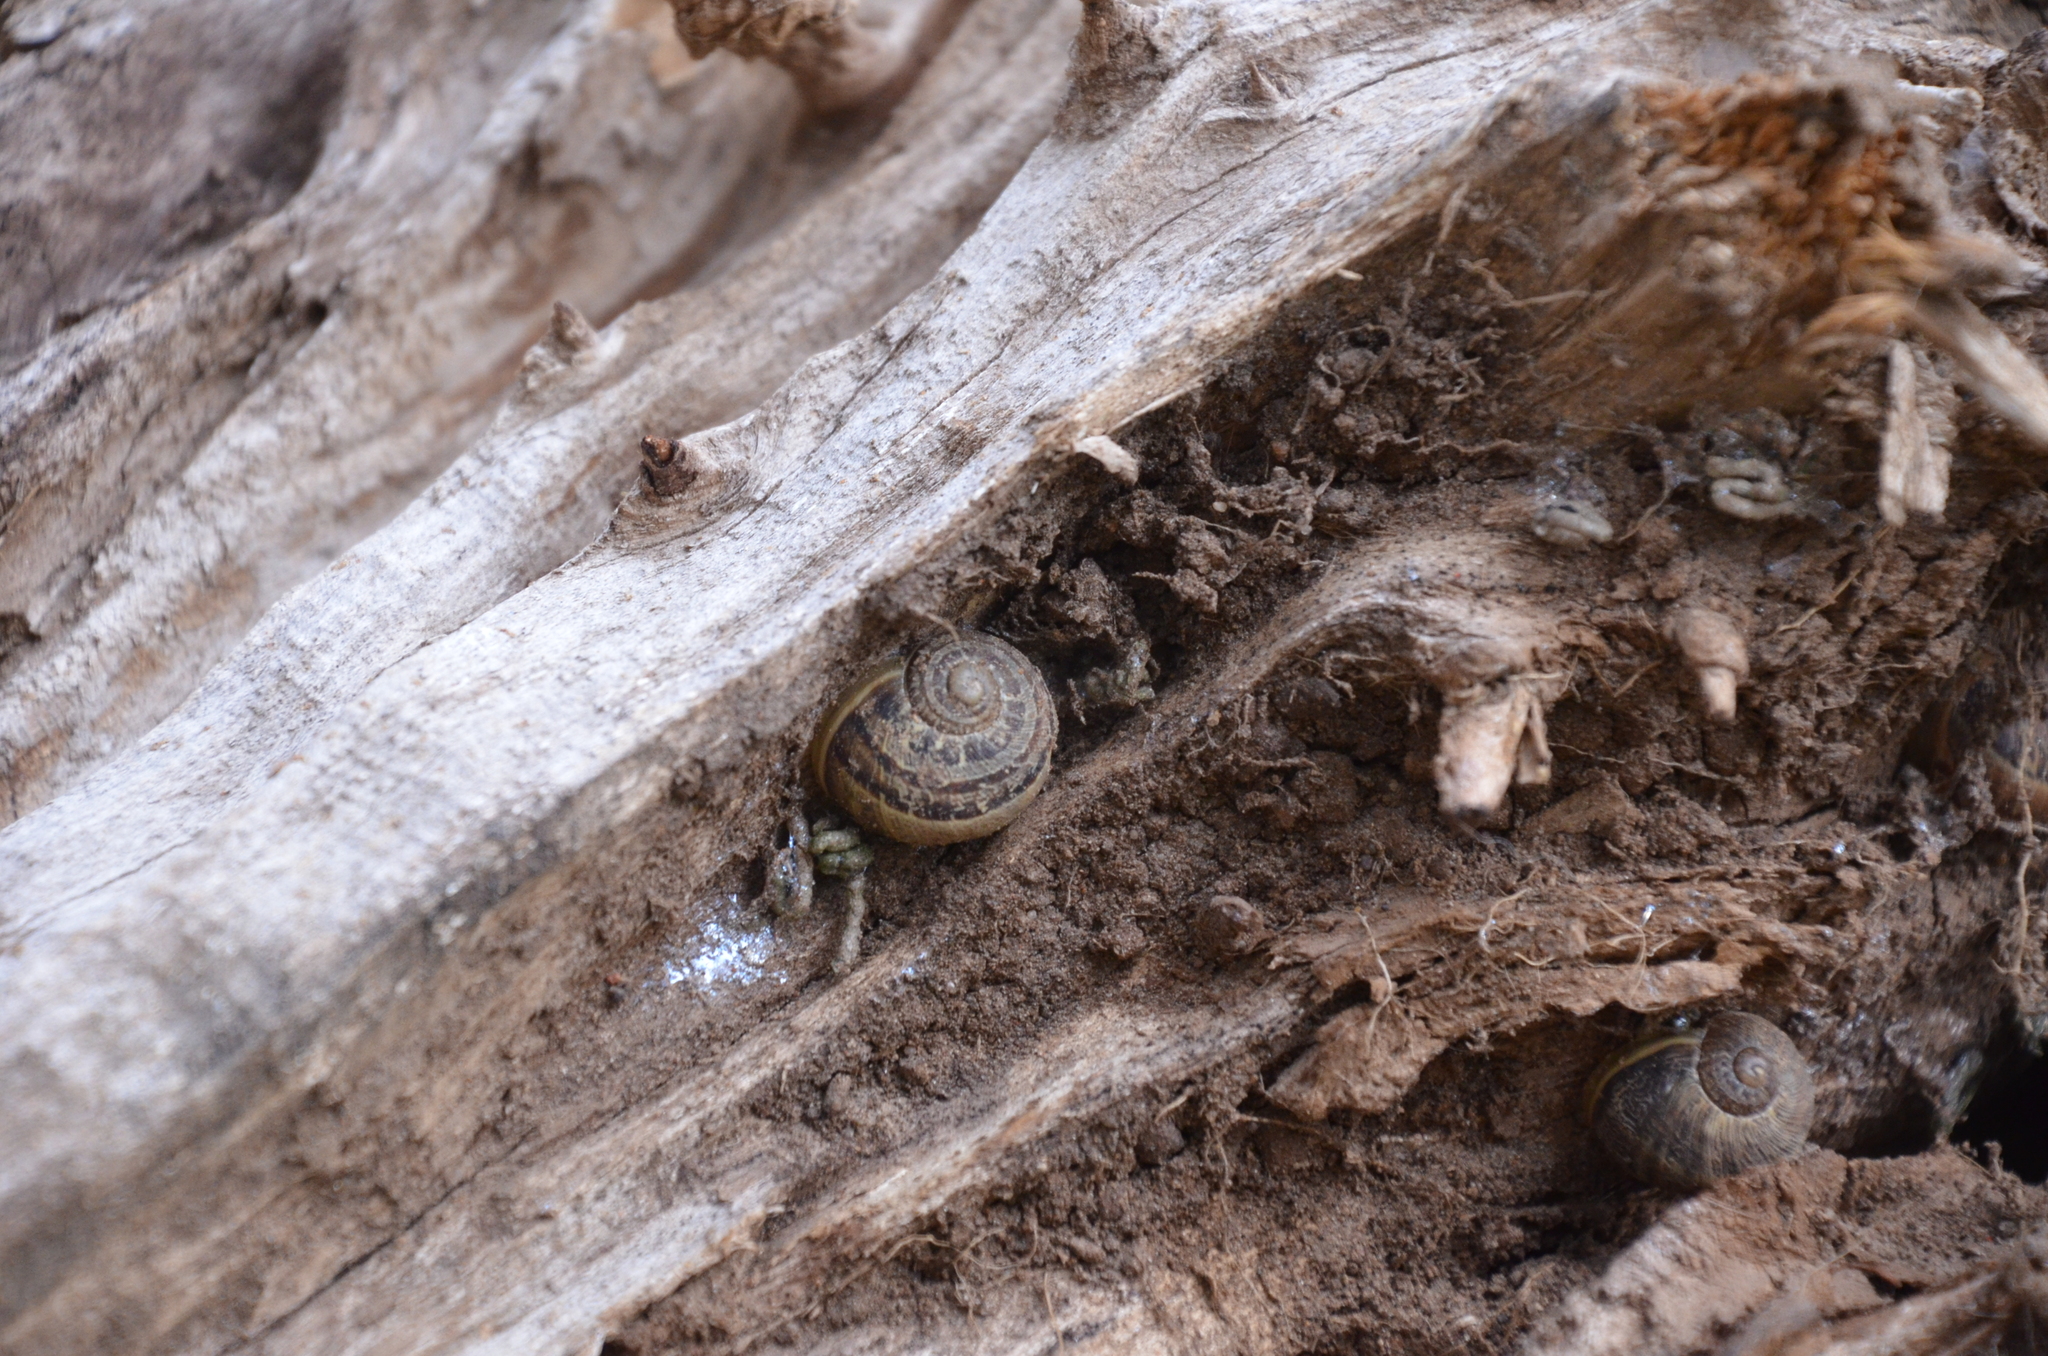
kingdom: Animalia
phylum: Mollusca
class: Gastropoda
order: Stylommatophora
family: Helicidae
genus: Cornu
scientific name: Cornu aspersum
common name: Brown garden snail
